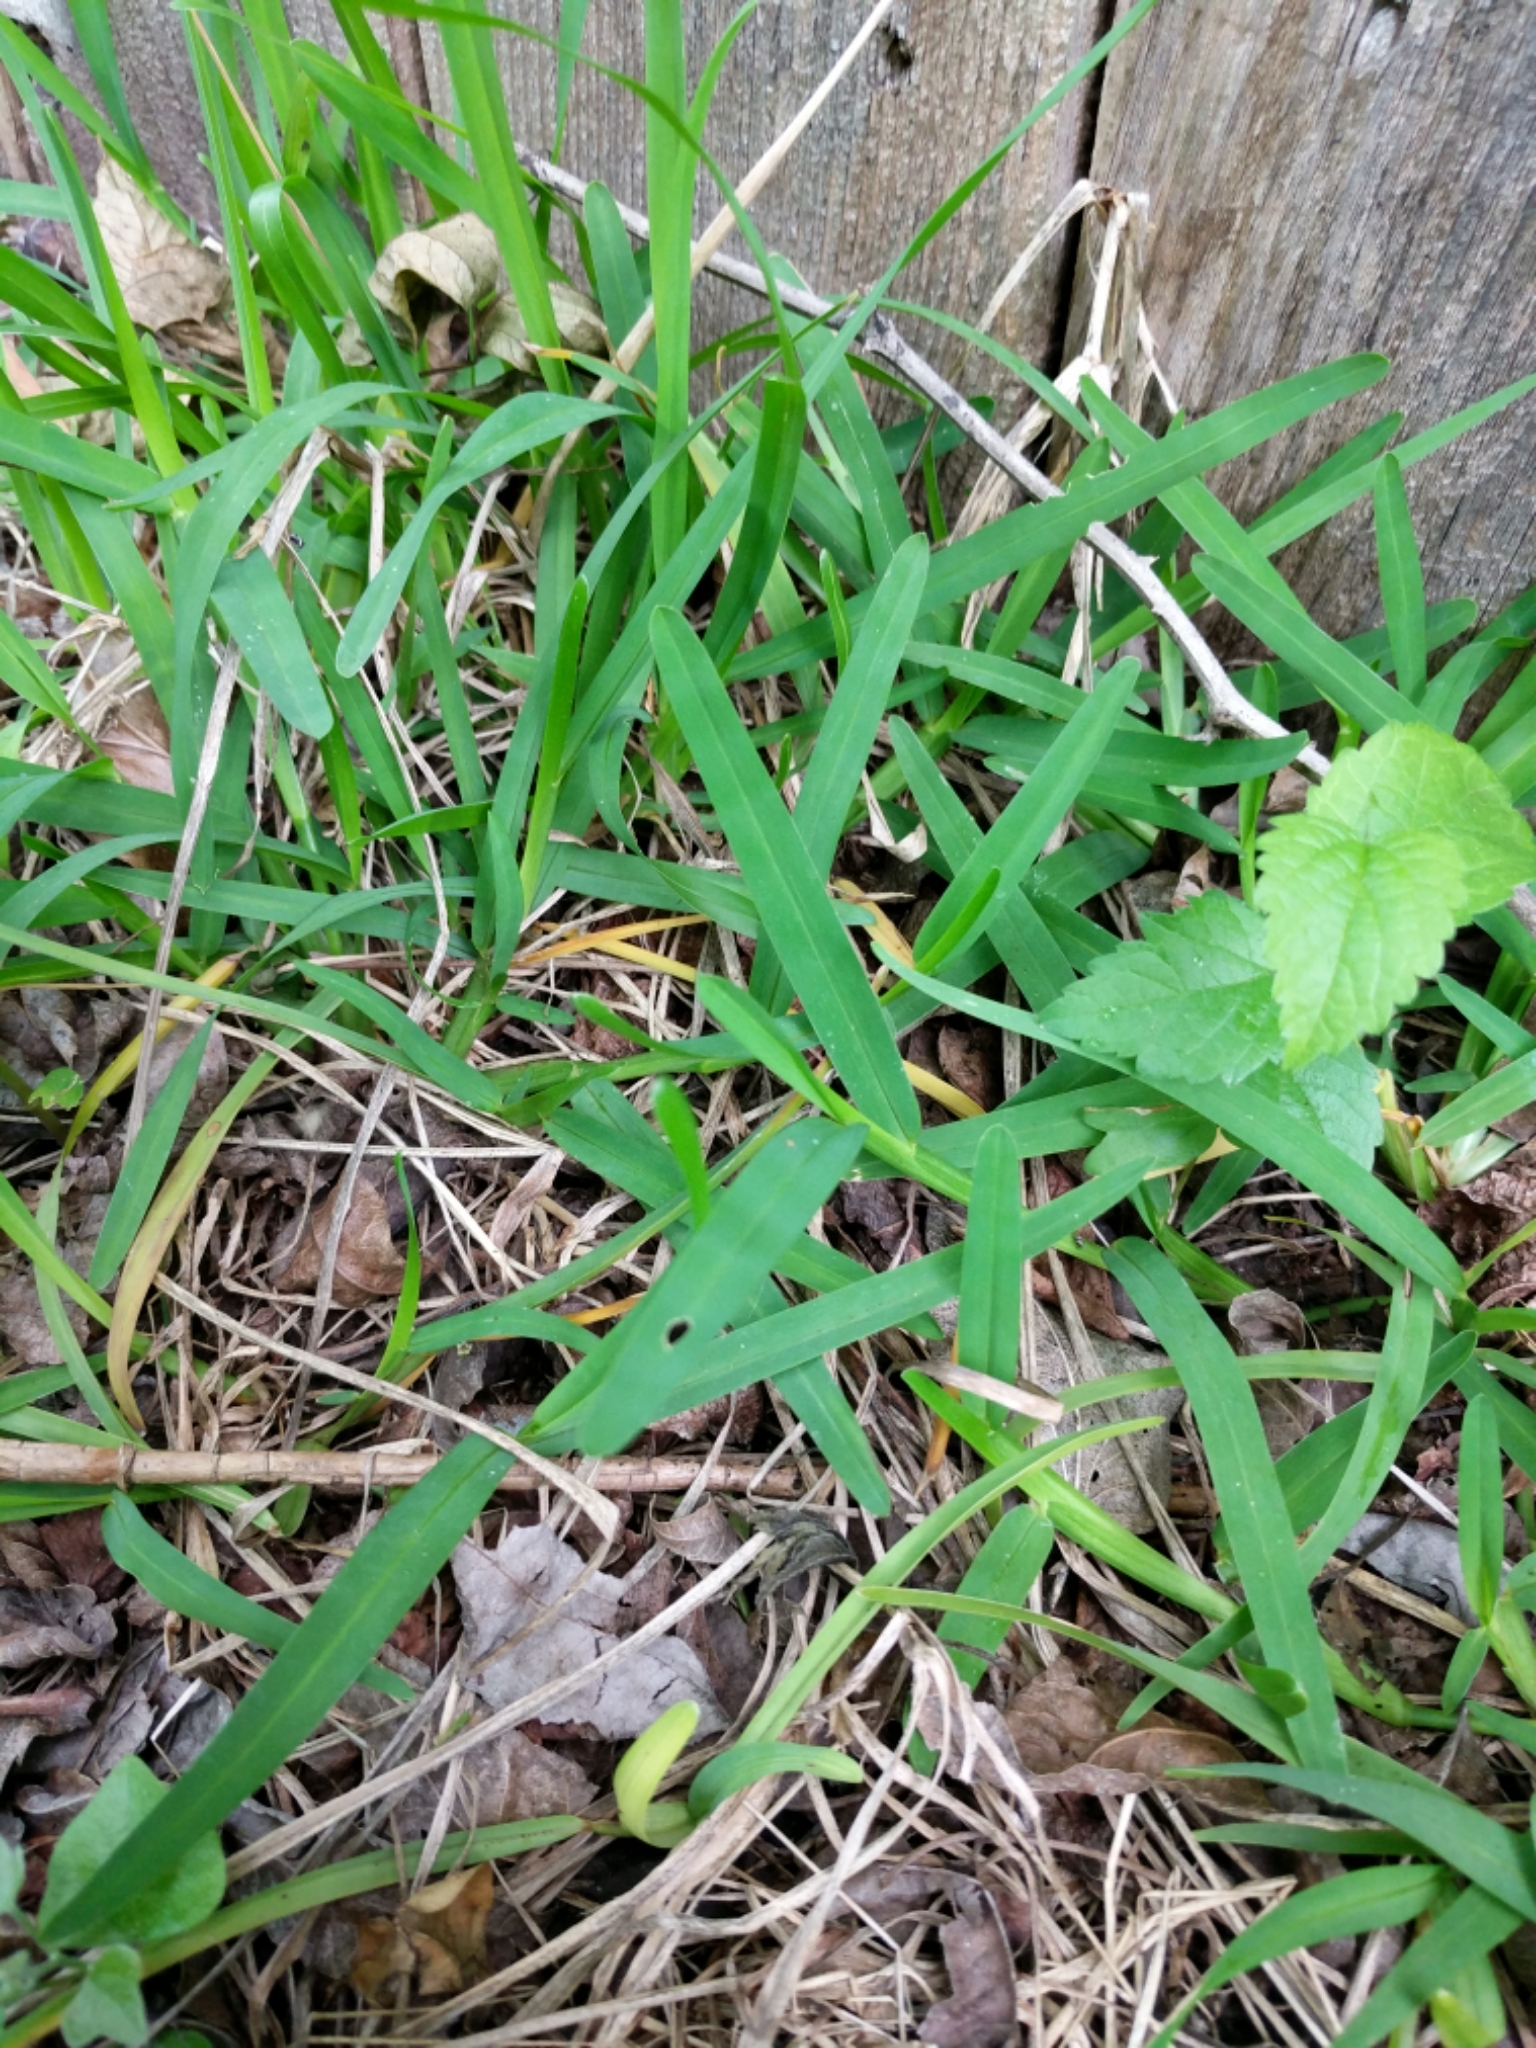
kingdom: Plantae
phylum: Tracheophyta
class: Liliopsida
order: Poales
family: Poaceae
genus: Stenotaphrum
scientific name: Stenotaphrum secundatum
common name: St. augustine grass
